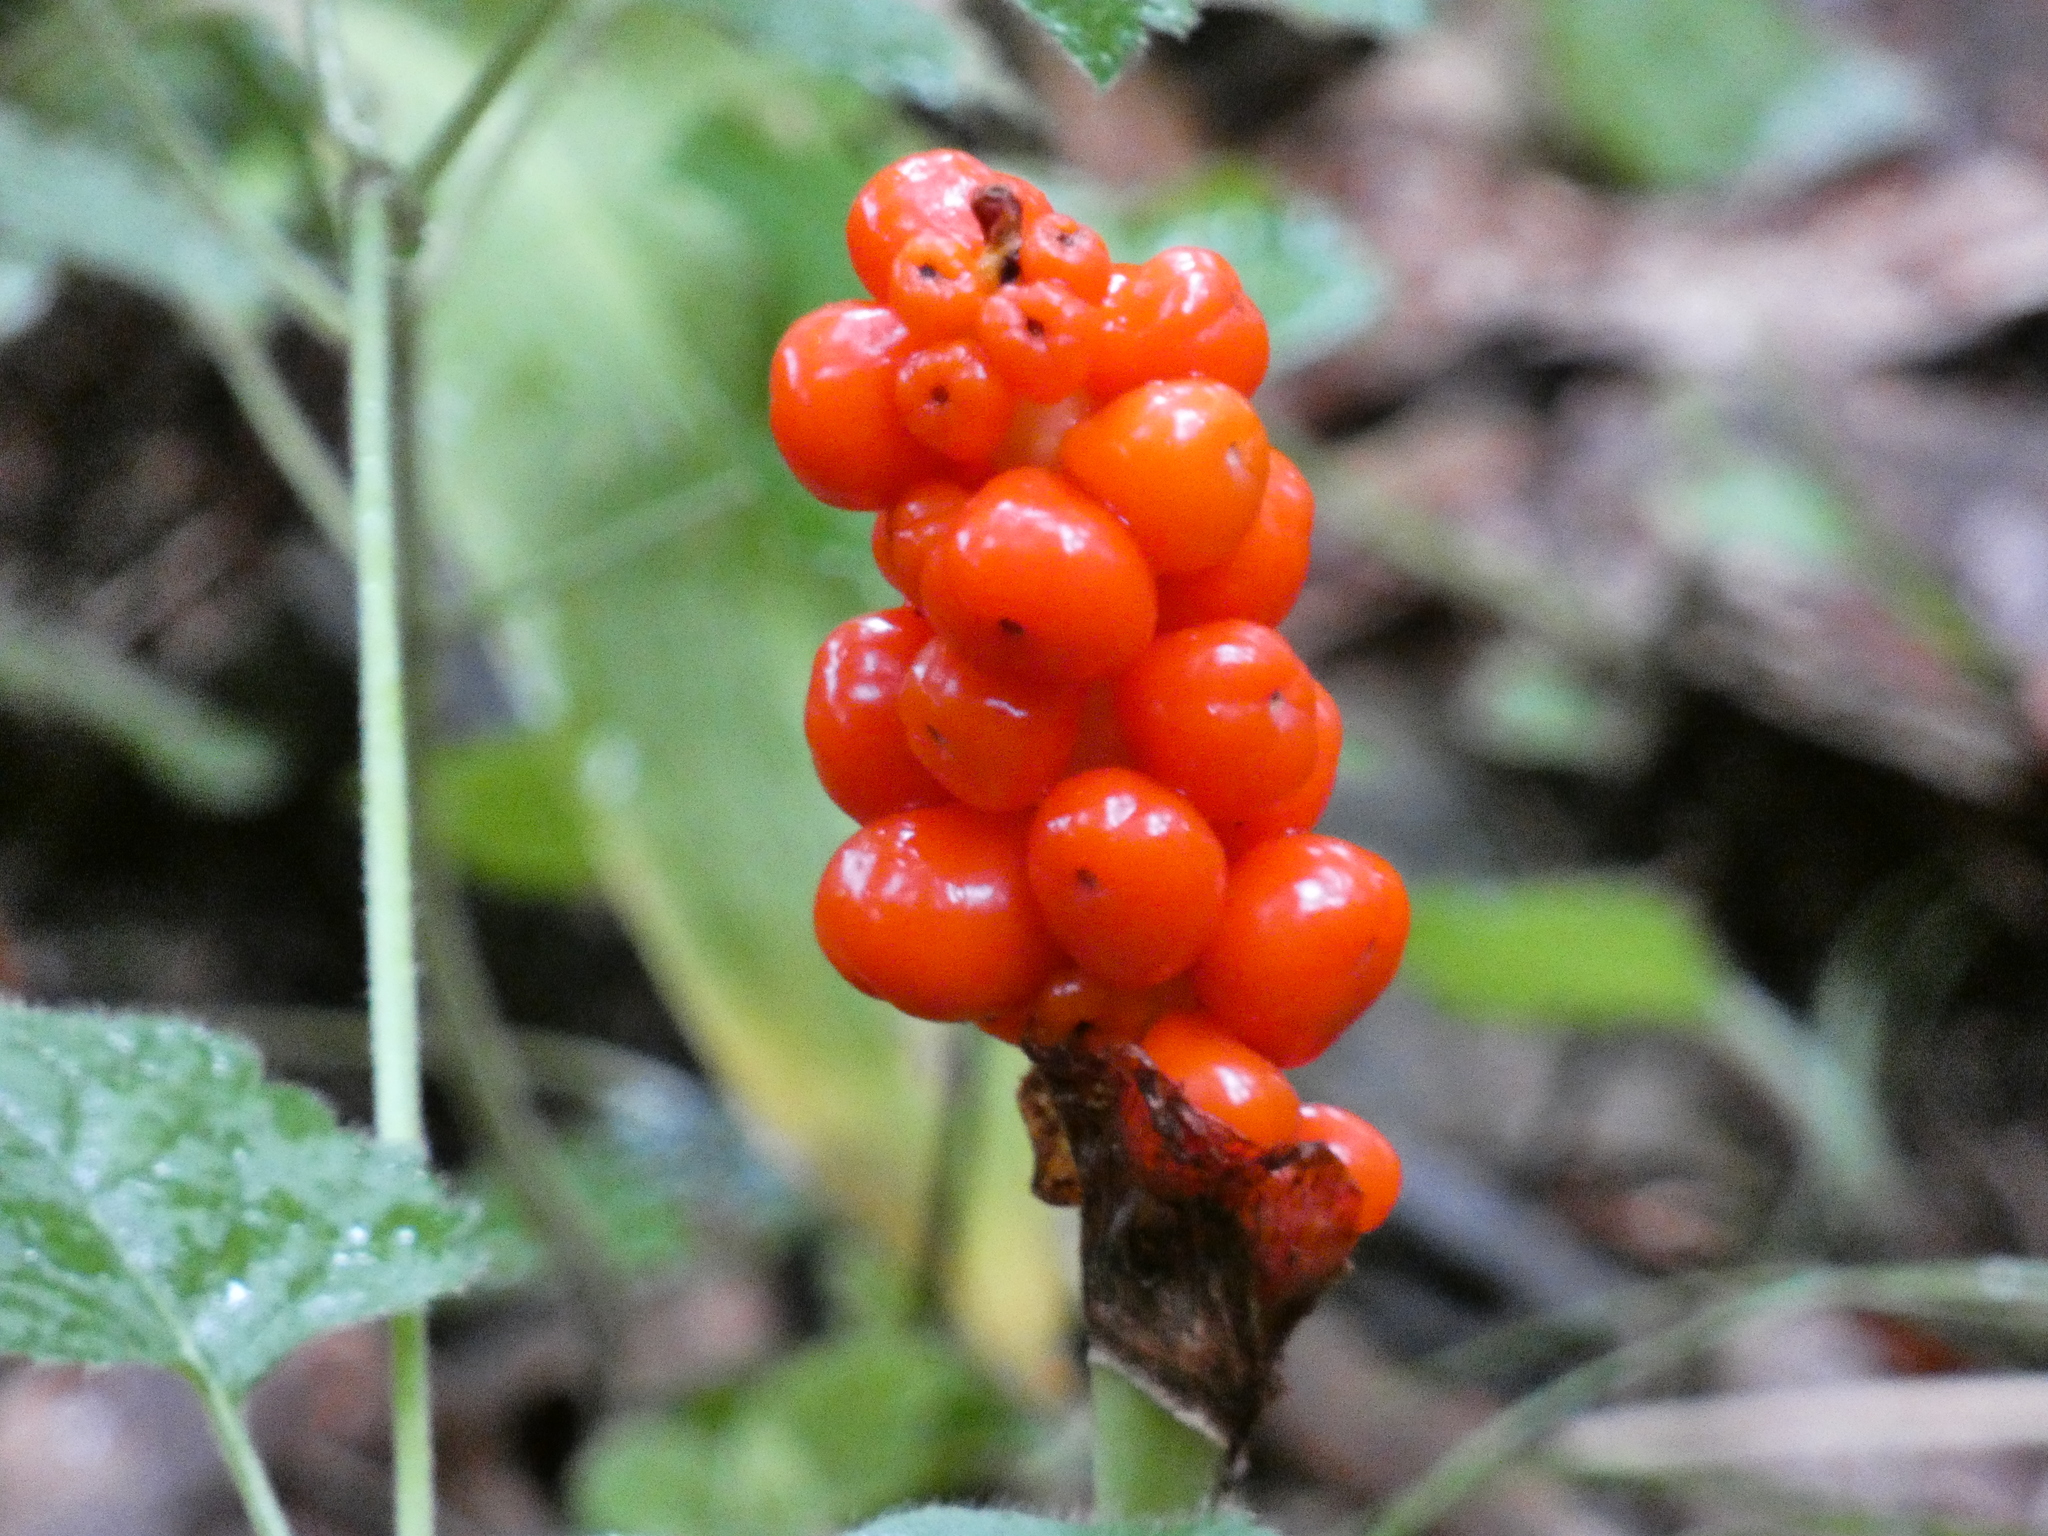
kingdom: Plantae
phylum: Tracheophyta
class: Liliopsida
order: Alismatales
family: Araceae
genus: Arum
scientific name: Arum maculatum
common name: Lords-and-ladies
